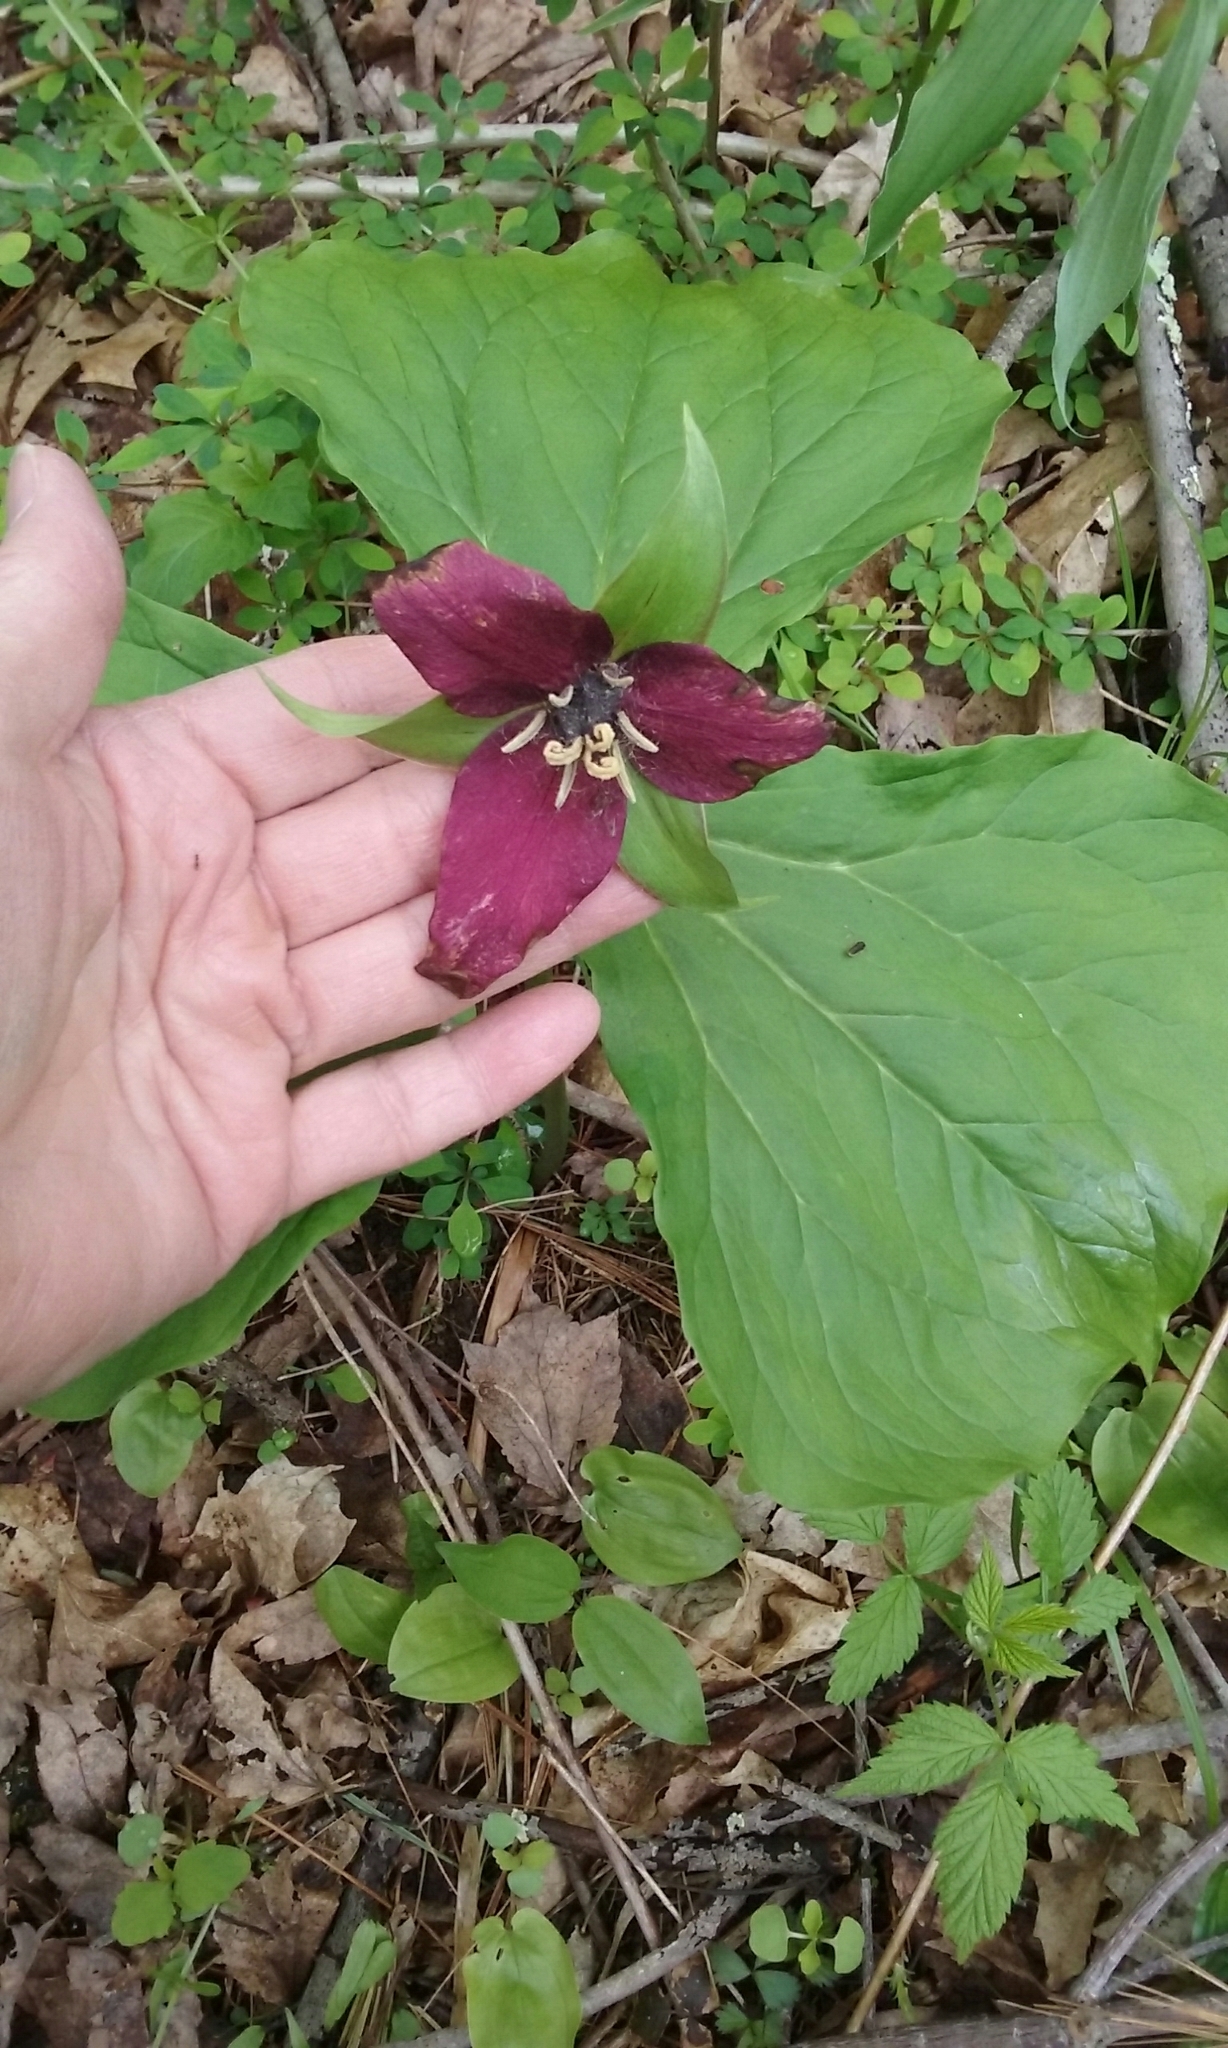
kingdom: Plantae
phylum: Tracheophyta
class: Liliopsida
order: Liliales
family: Melanthiaceae
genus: Trillium
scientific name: Trillium erectum
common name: Purple trillium
